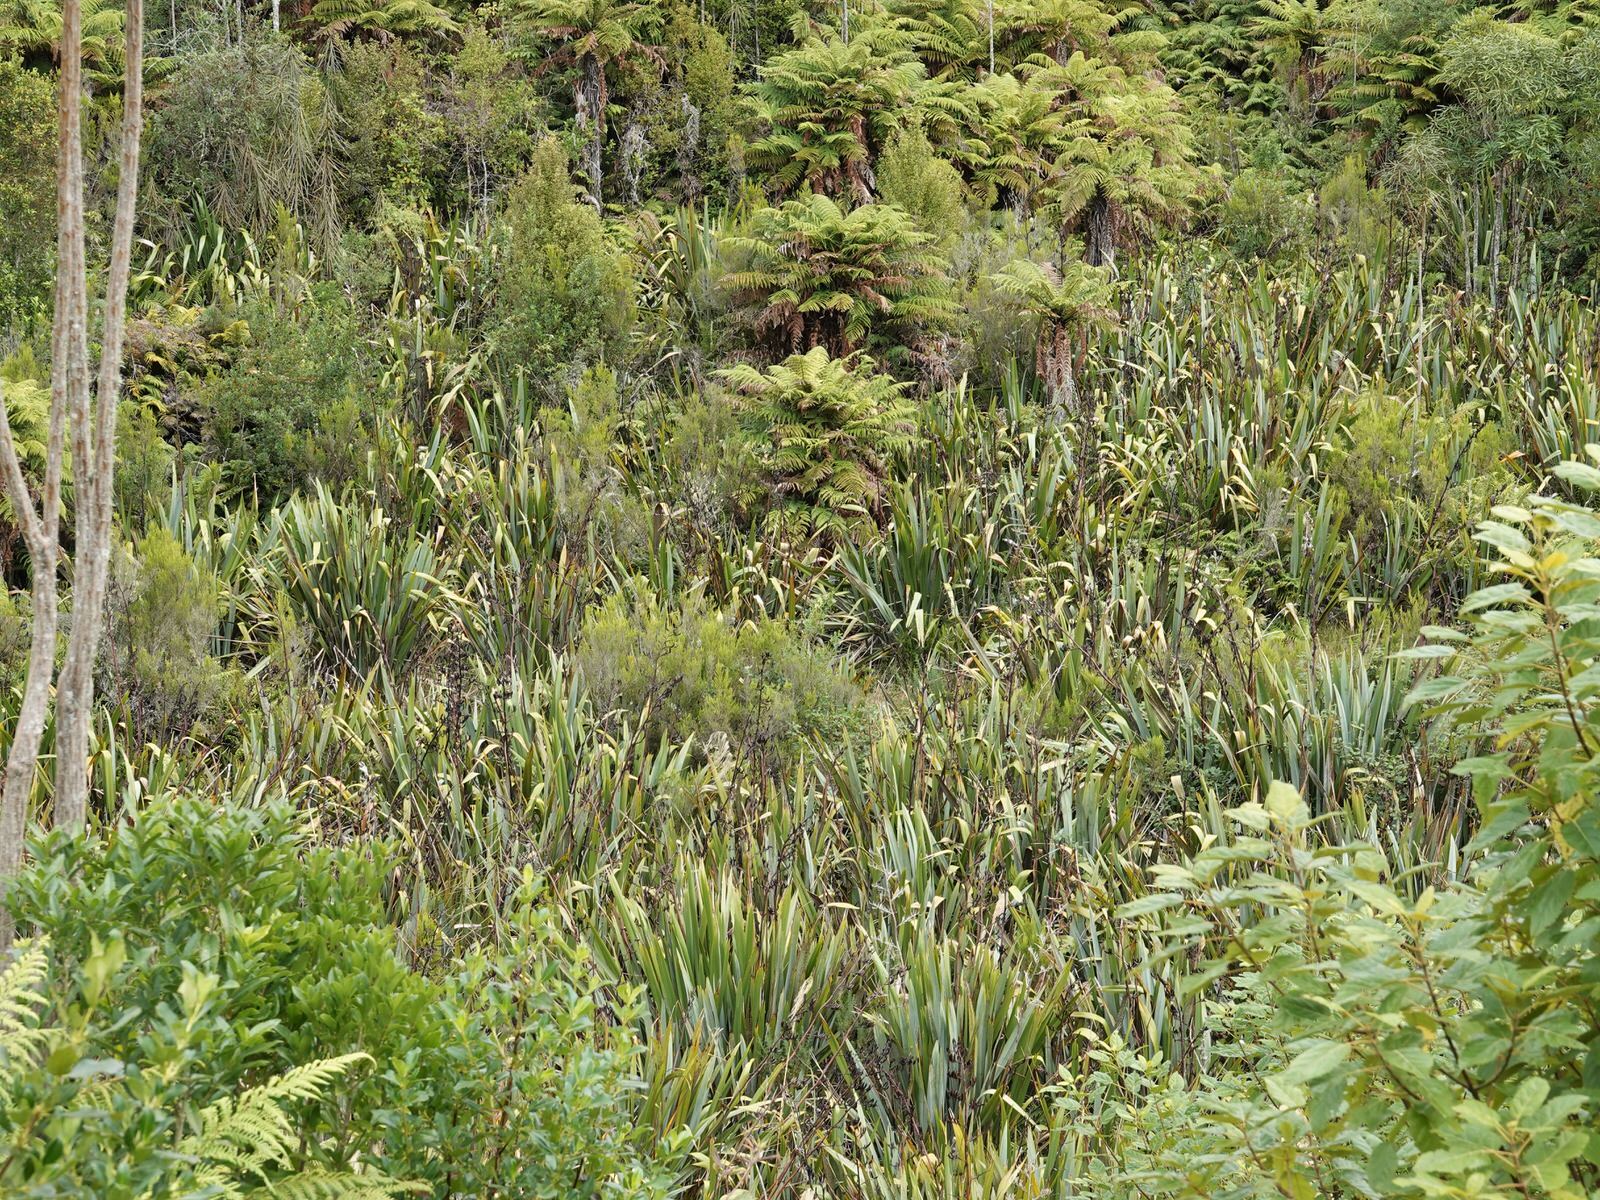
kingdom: Plantae
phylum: Tracheophyta
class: Liliopsida
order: Asparagales
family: Asphodelaceae
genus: Phormium
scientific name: Phormium tenax
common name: New zealand flax
